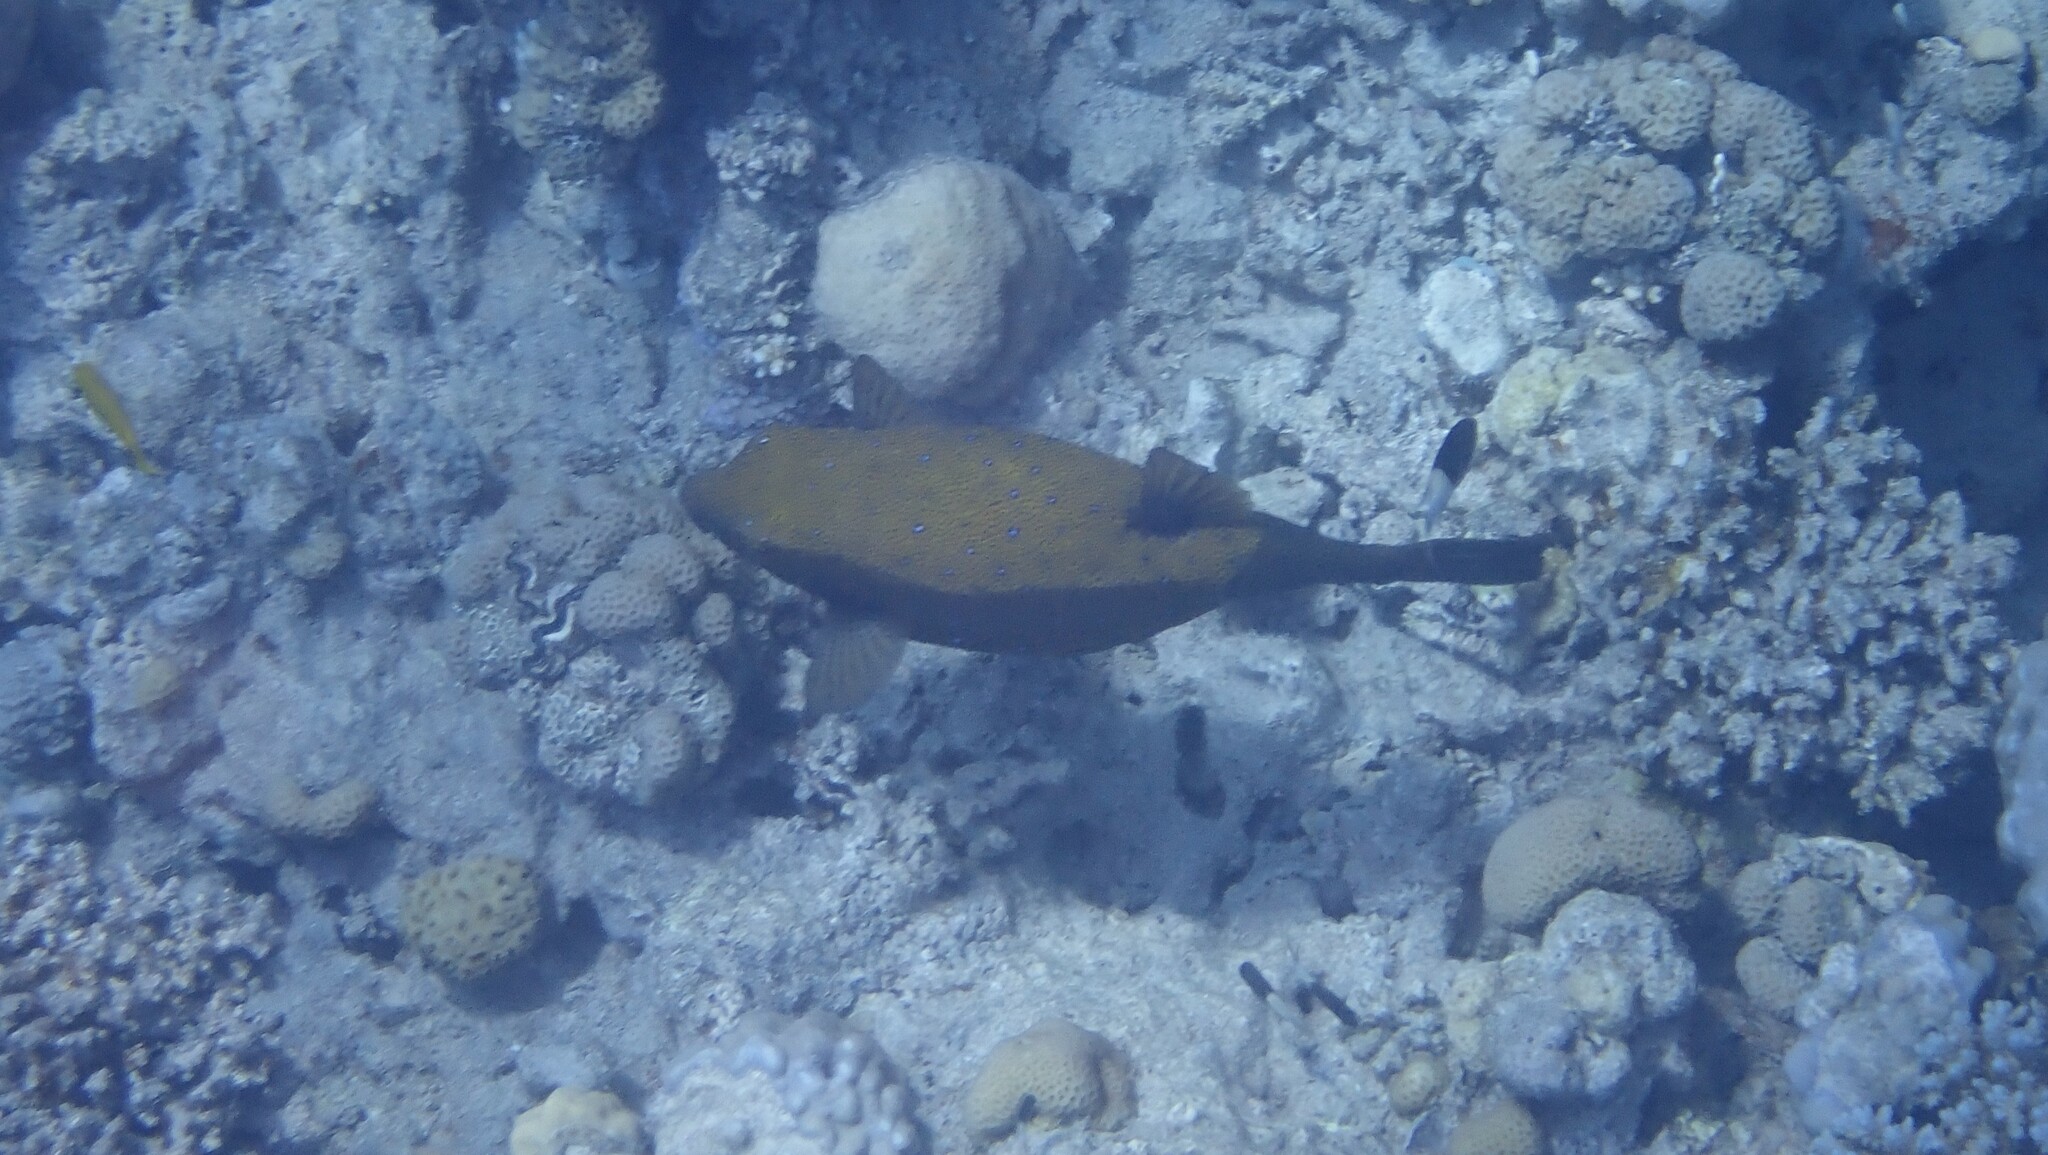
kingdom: Animalia
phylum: Chordata
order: Tetraodontiformes
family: Ostraciidae
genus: Ostracion
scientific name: Ostracion cyanurus
